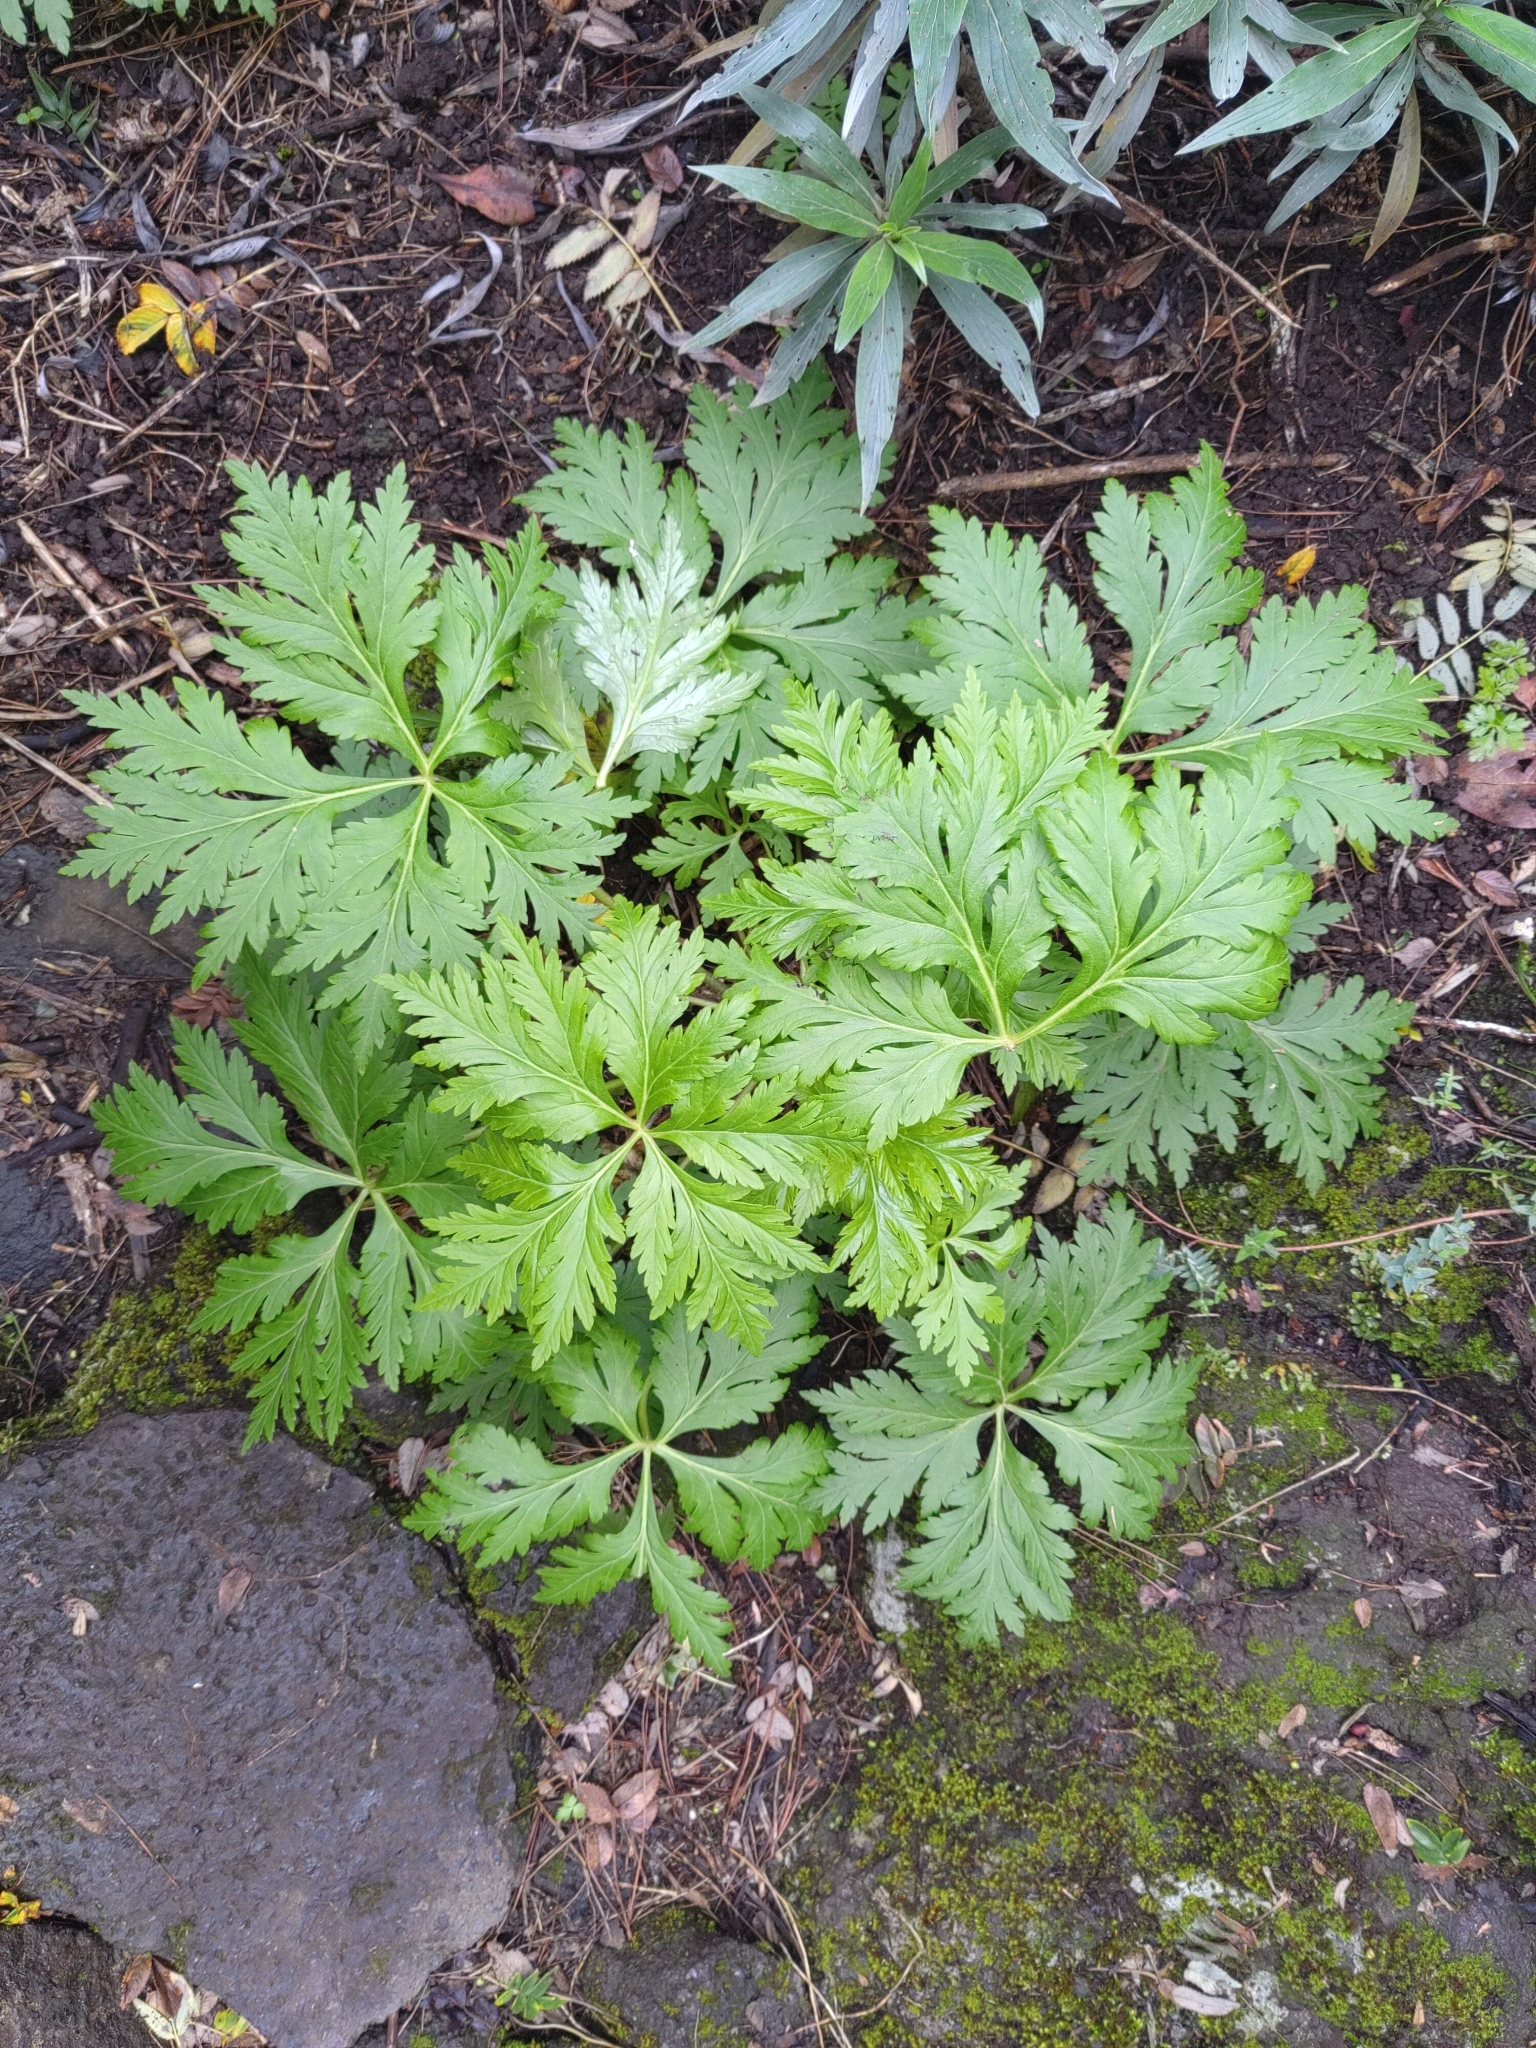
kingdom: Plantae
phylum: Tracheophyta
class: Magnoliopsida
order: Geraniales
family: Geraniaceae
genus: Geranium
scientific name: Geranium reuteri
